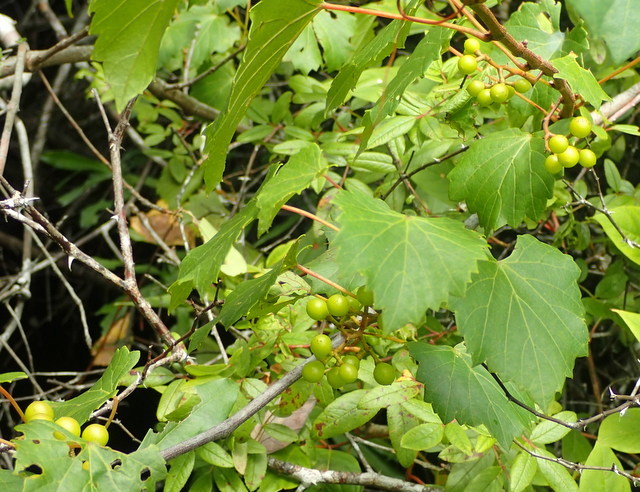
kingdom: Plantae
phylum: Tracheophyta
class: Magnoliopsida
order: Vitales
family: Vitaceae
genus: Vitis
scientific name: Vitis rotundifolia
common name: Muscadine grape
